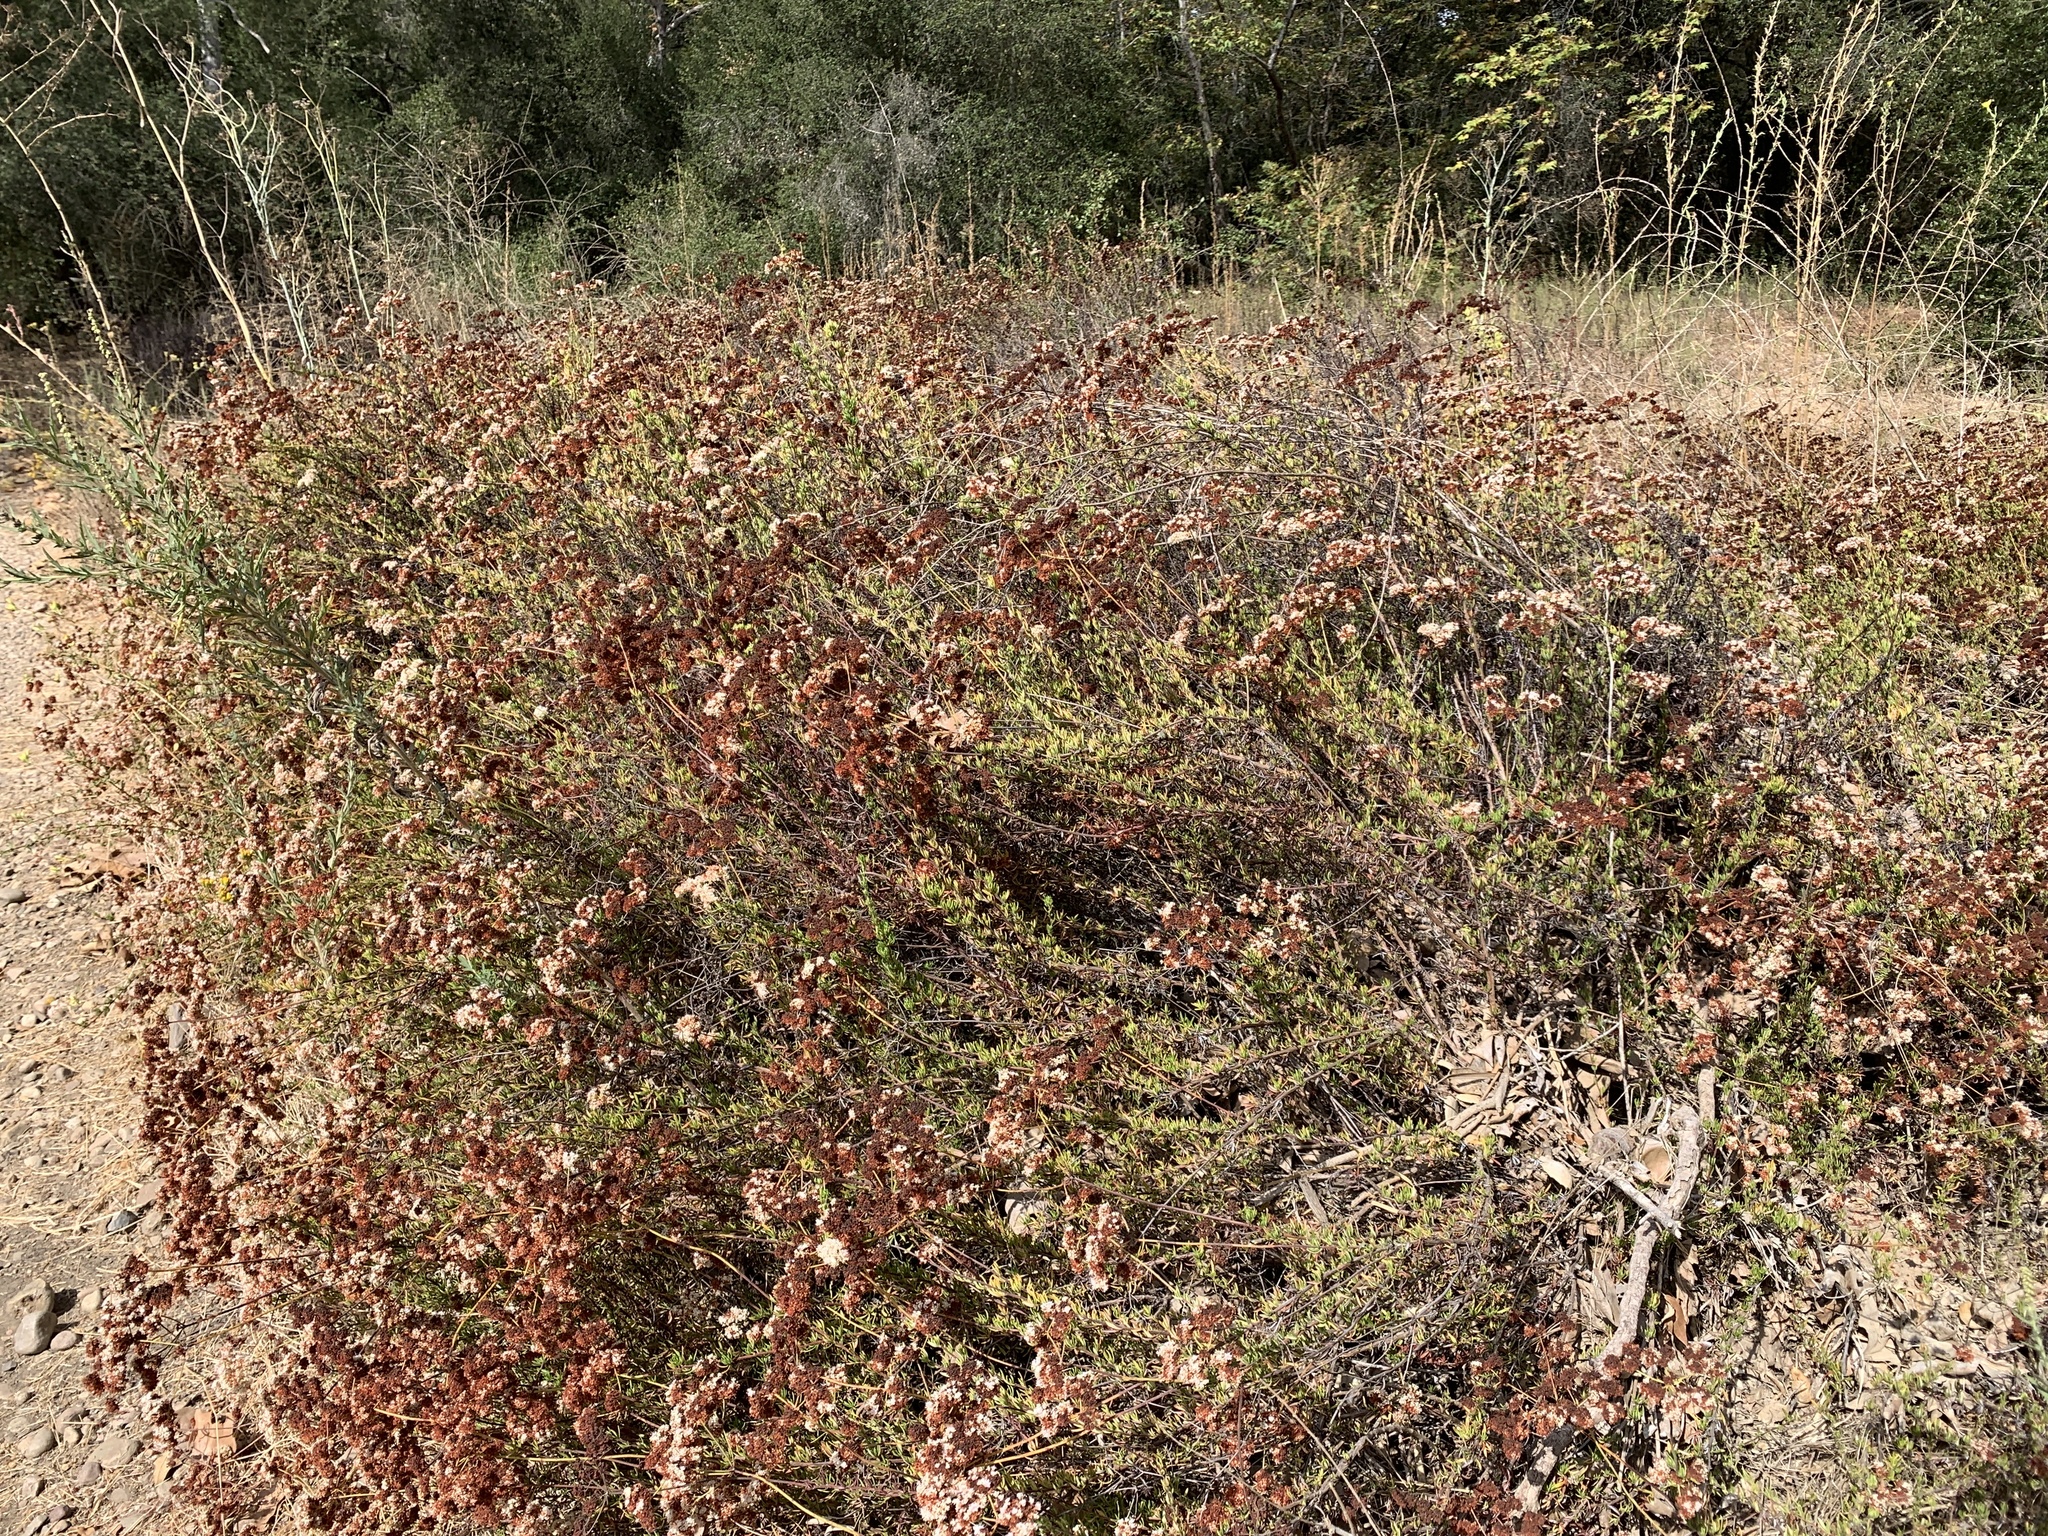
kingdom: Plantae
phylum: Tracheophyta
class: Magnoliopsida
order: Caryophyllales
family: Polygonaceae
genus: Eriogonum
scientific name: Eriogonum fasciculatum
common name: California wild buckwheat
